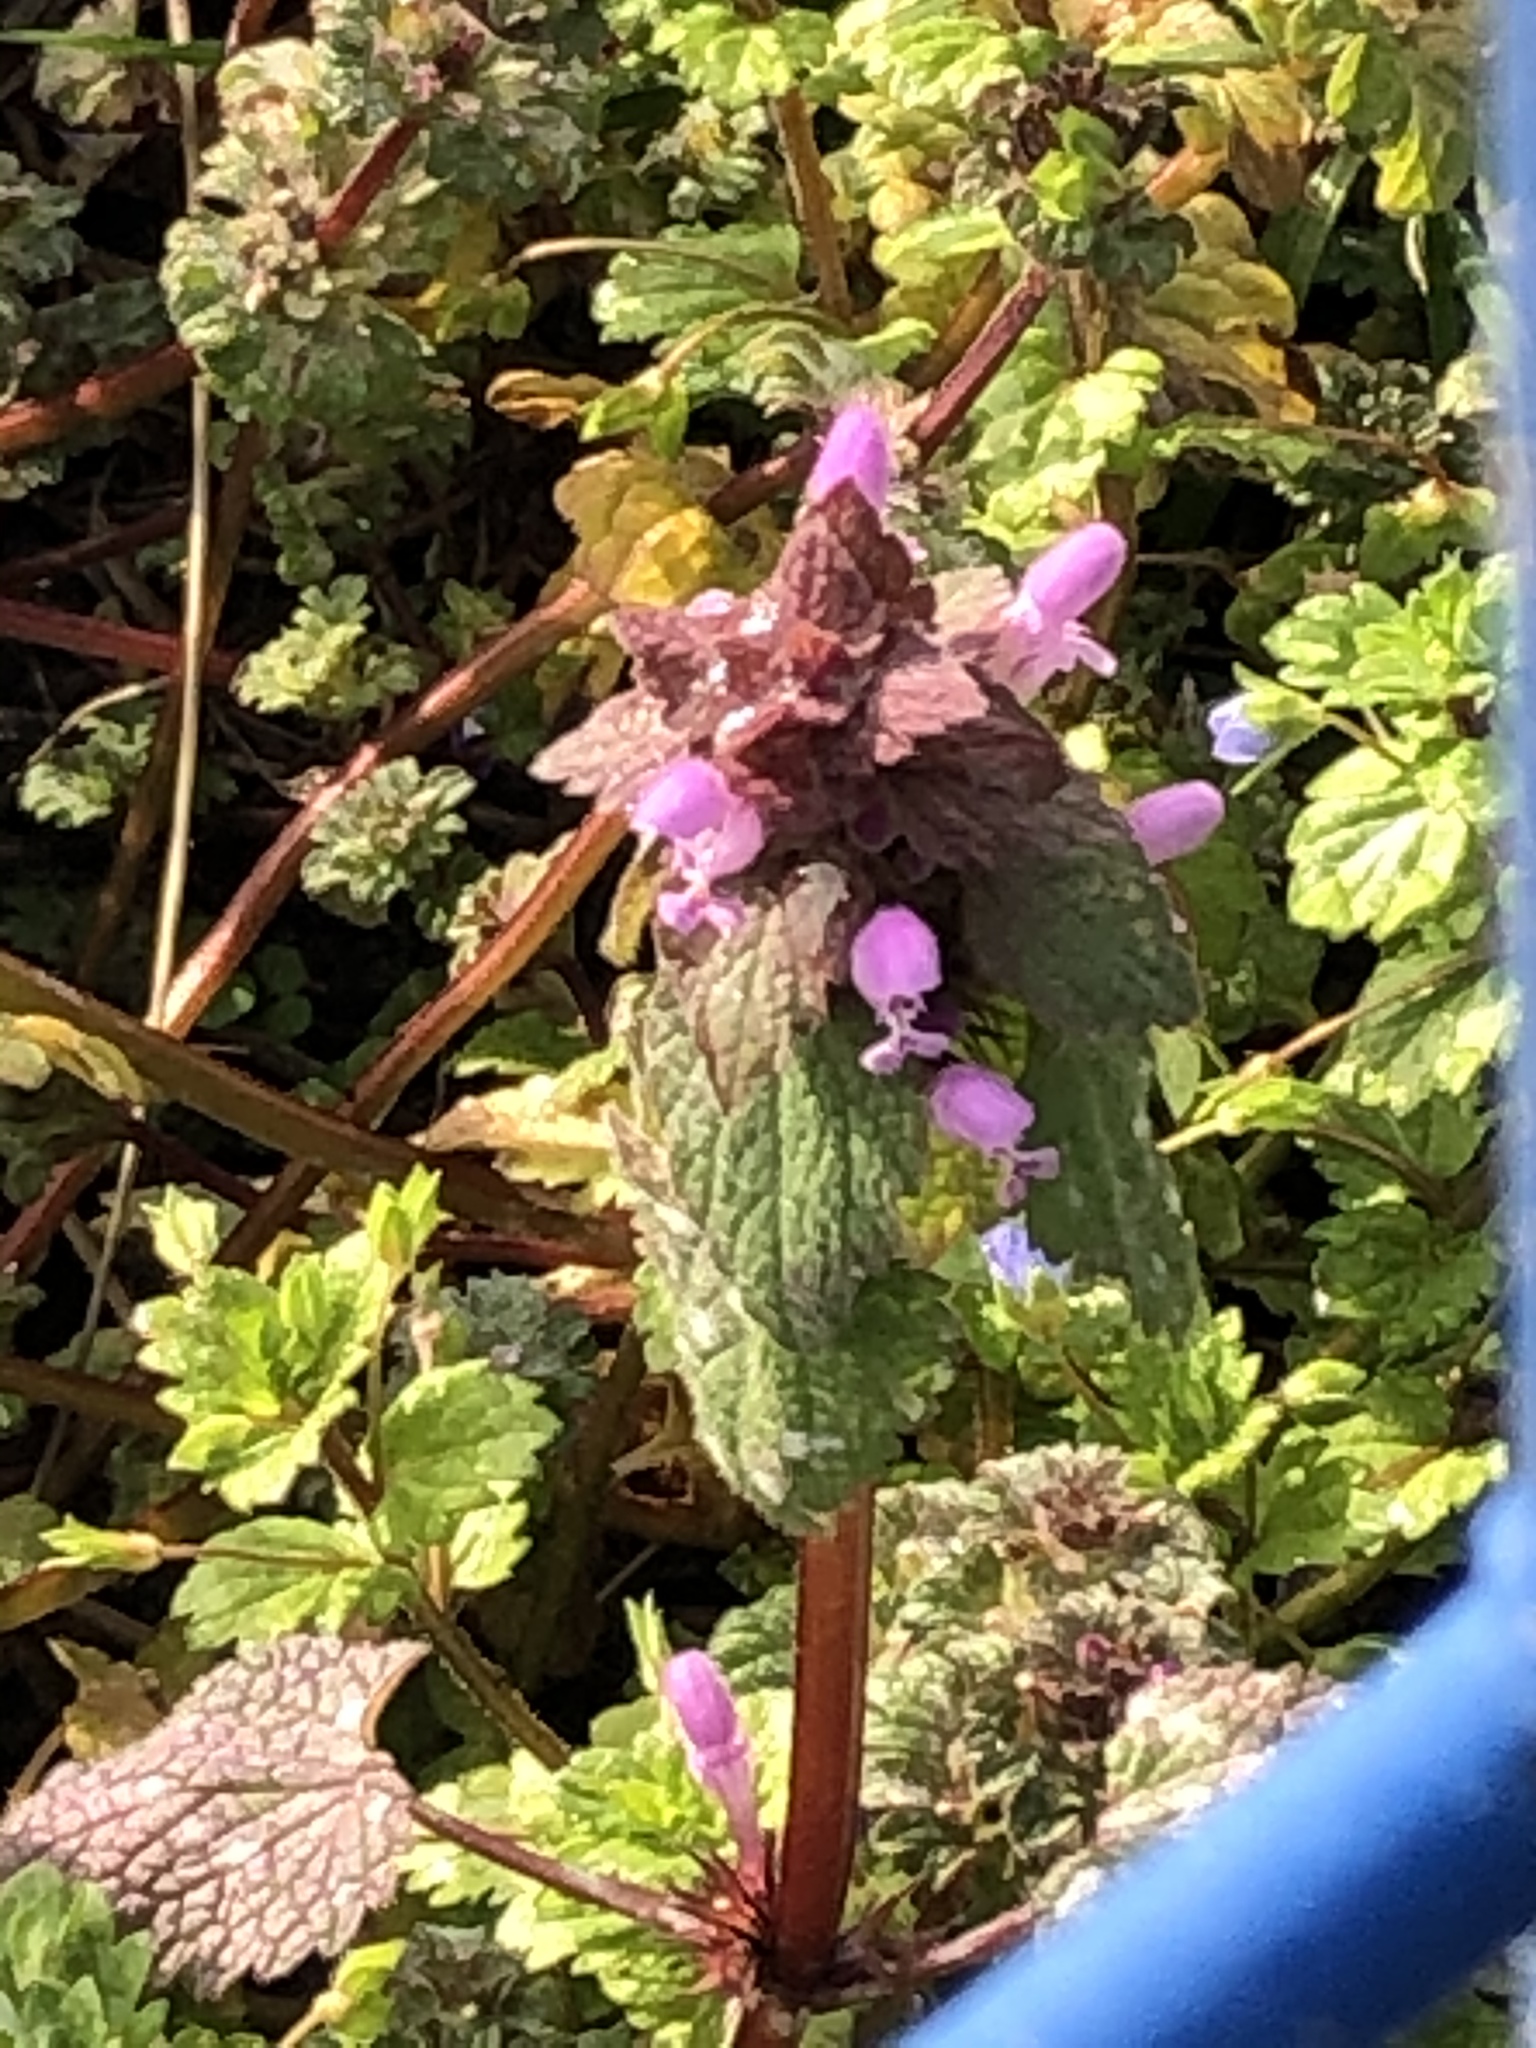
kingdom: Plantae
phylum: Tracheophyta
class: Magnoliopsida
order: Lamiales
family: Lamiaceae
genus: Lamium
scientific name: Lamium purpureum
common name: Red dead-nettle
